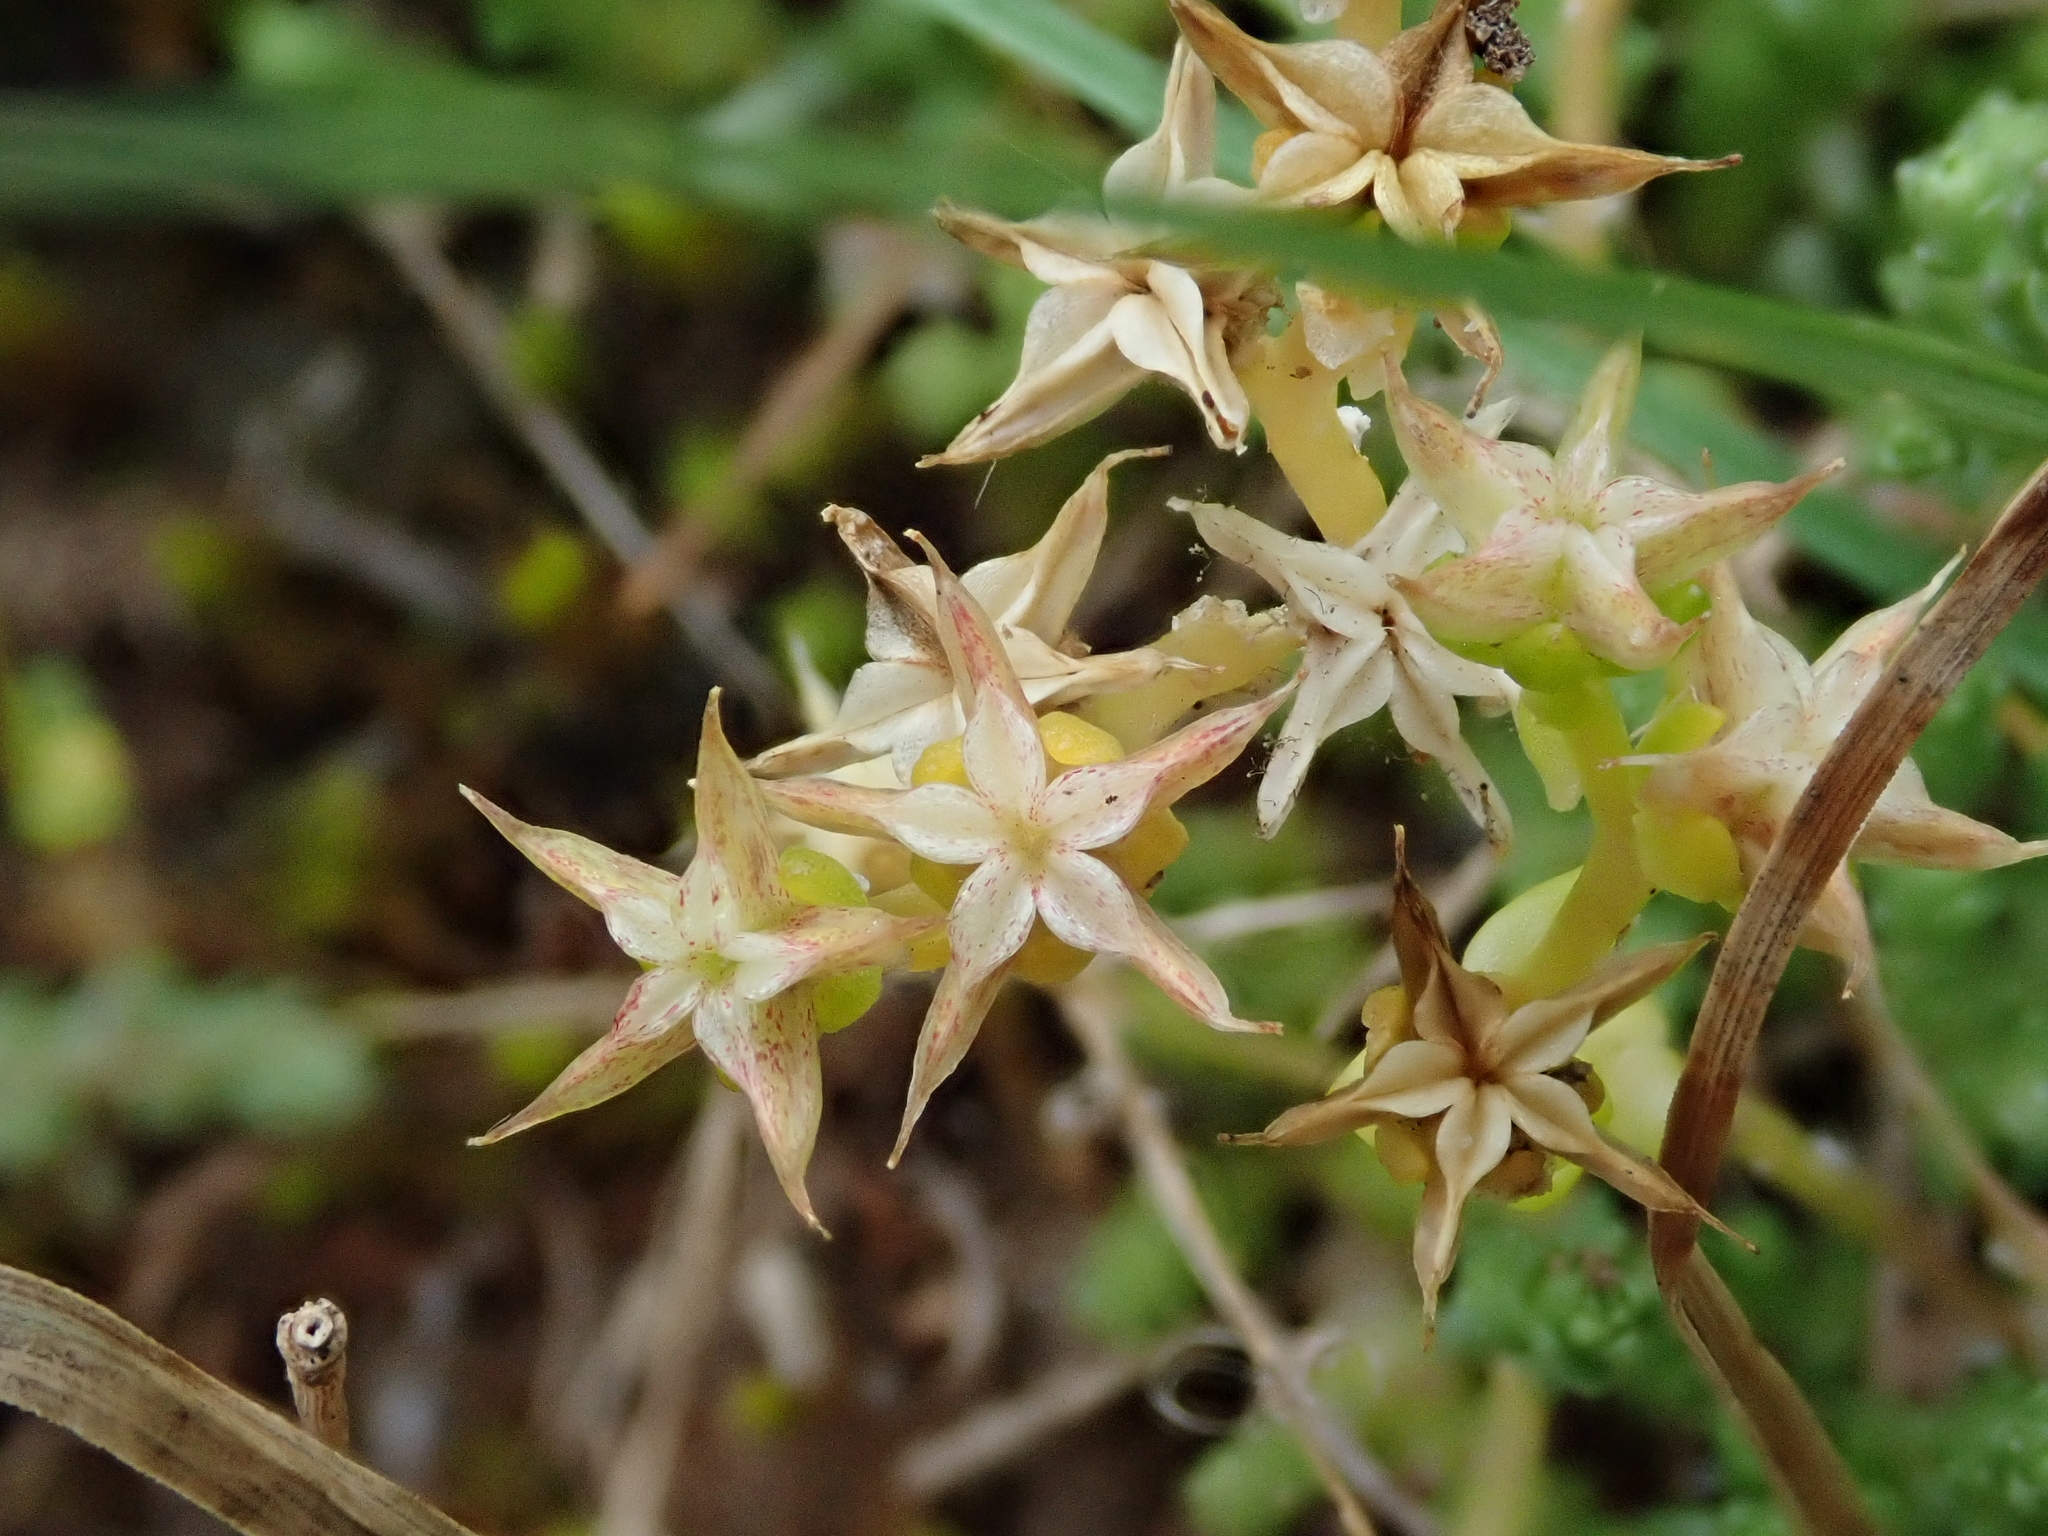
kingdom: Plantae
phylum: Tracheophyta
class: Magnoliopsida
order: Saxifragales
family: Crassulaceae
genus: Sedum
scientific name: Sedum acre
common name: Biting stonecrop
